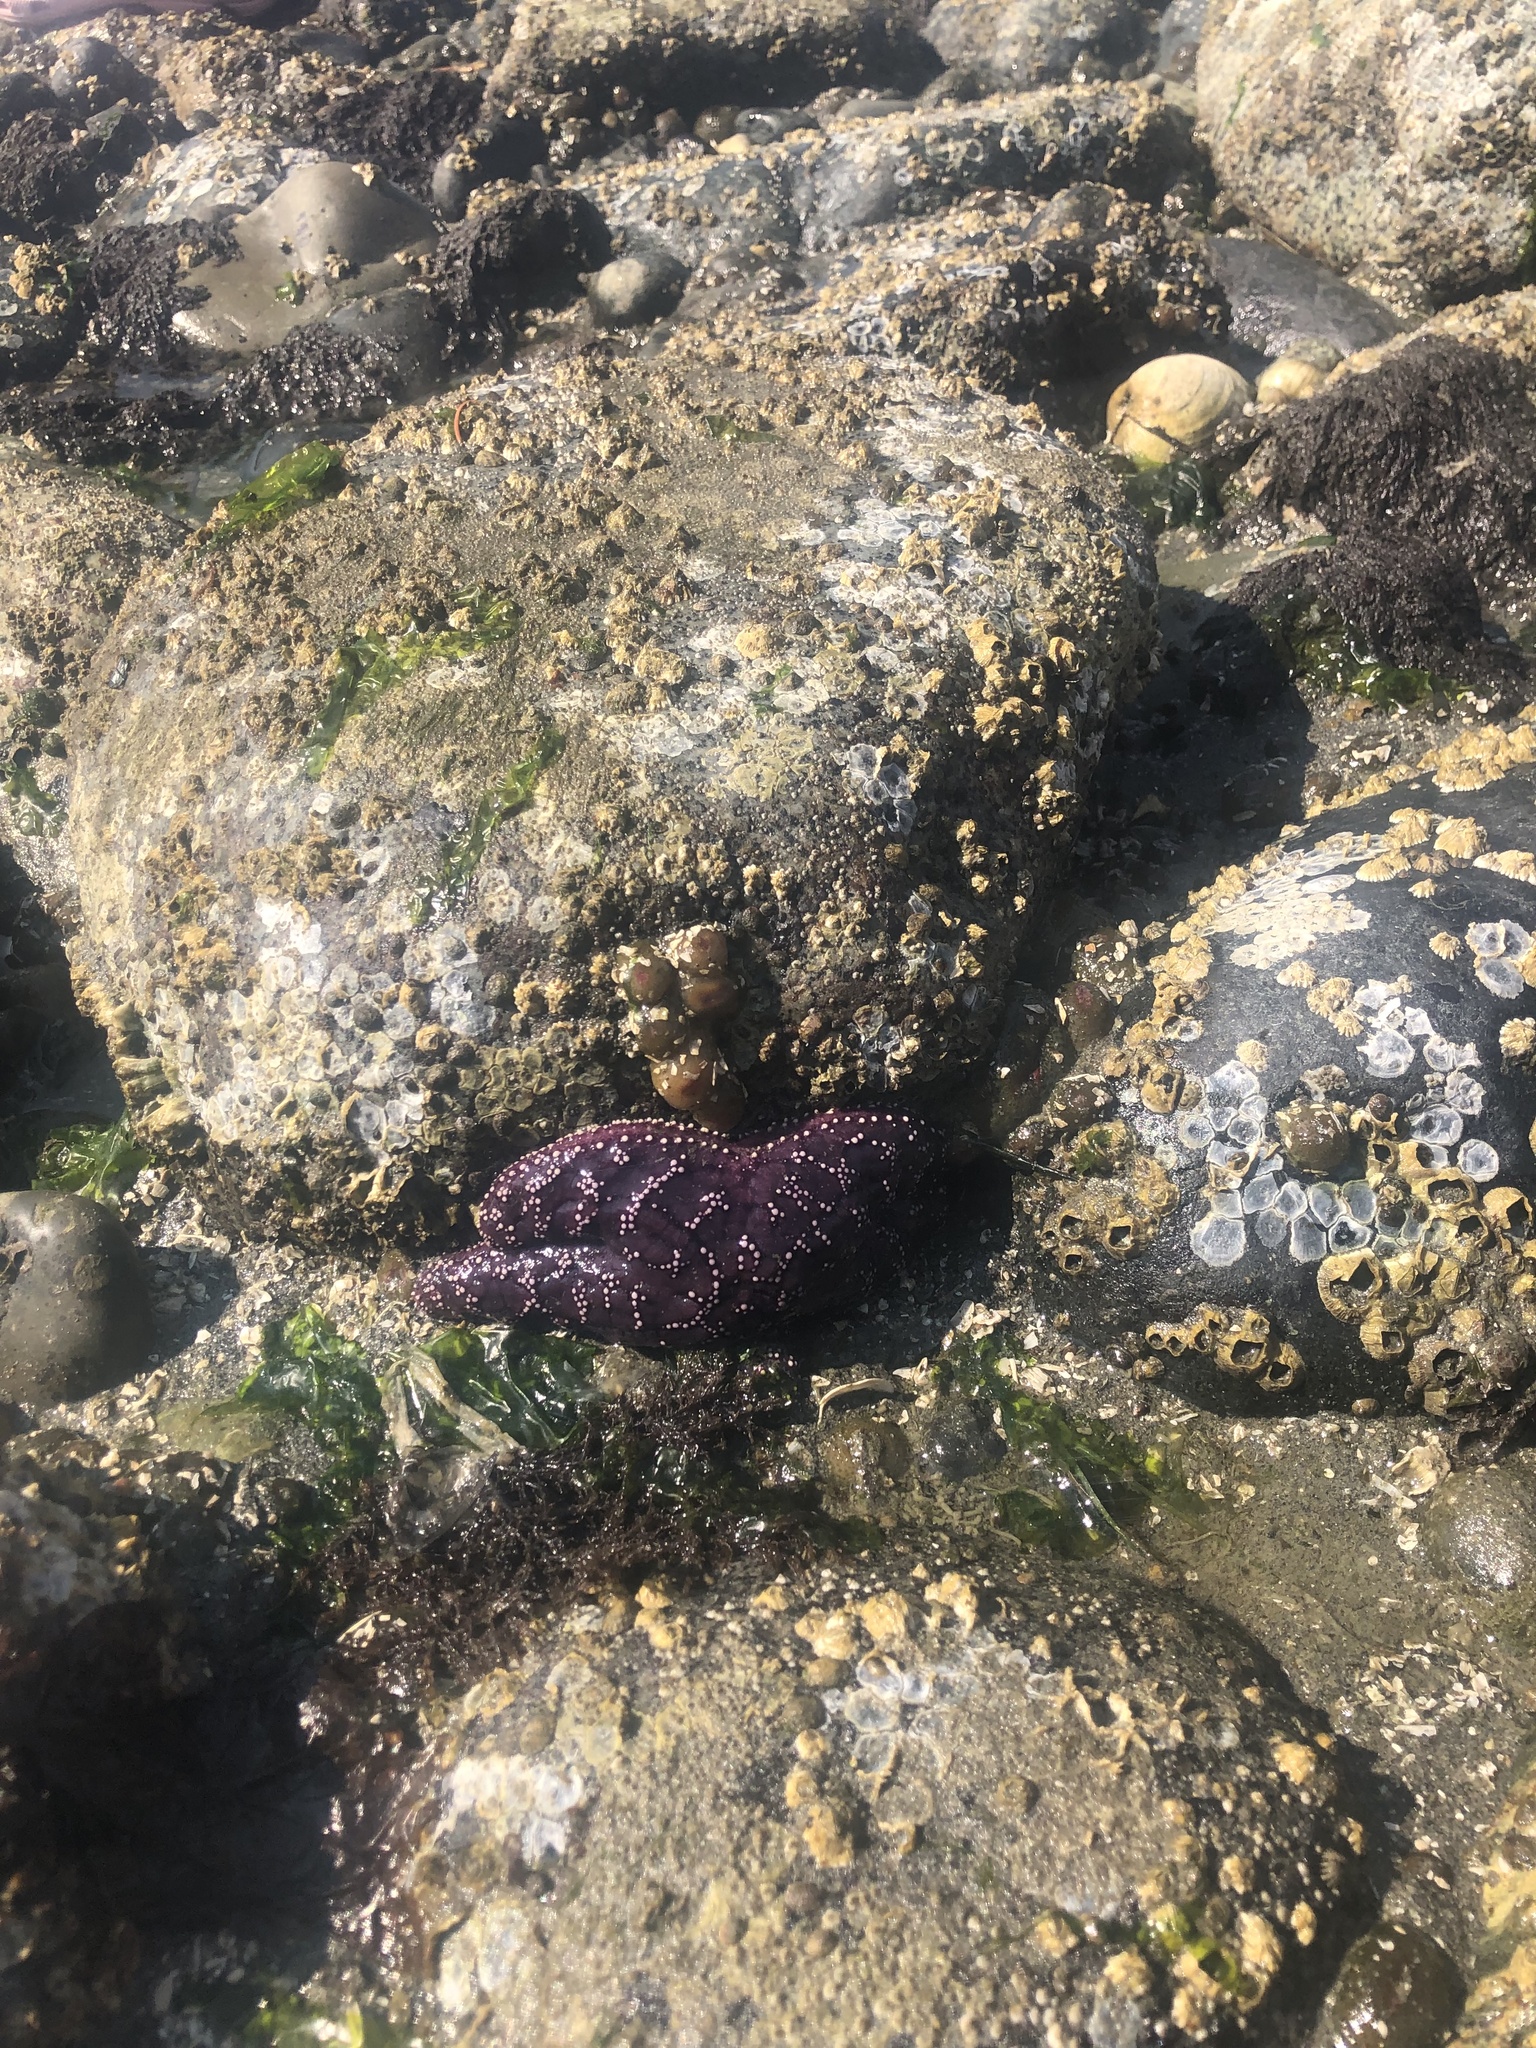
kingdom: Animalia
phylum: Echinodermata
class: Asteroidea
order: Forcipulatida
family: Asteriidae
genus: Pisaster
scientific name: Pisaster ochraceus
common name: Ochre stars
